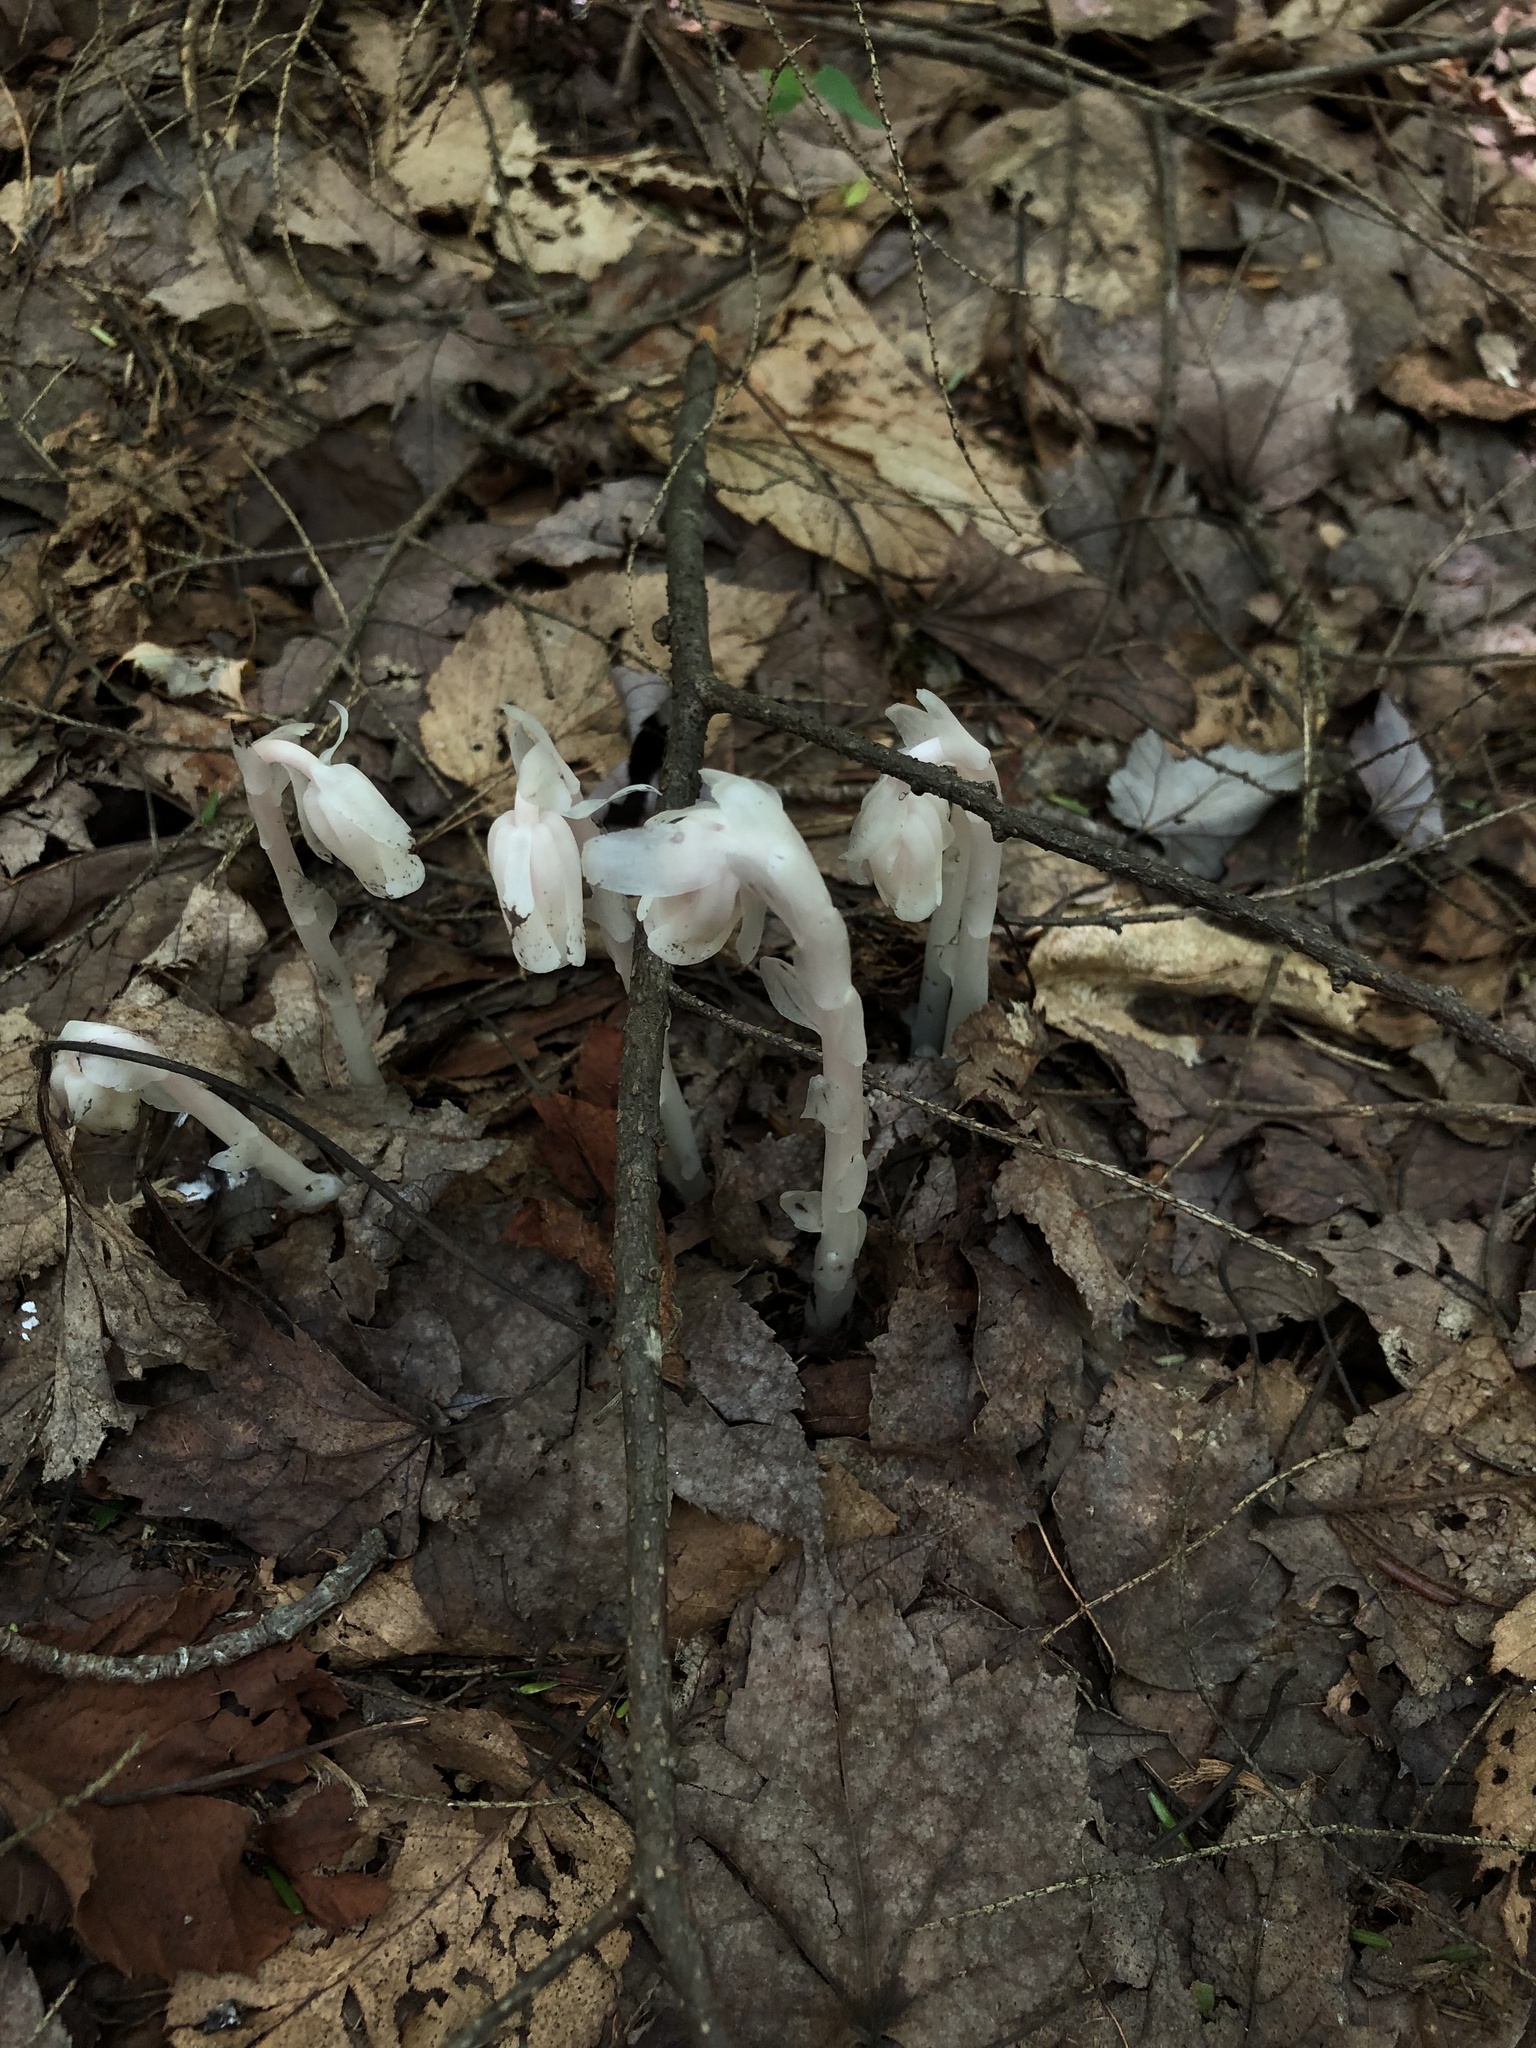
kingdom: Plantae
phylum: Tracheophyta
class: Magnoliopsida
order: Ericales
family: Ericaceae
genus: Monotropa
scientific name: Monotropa uniflora
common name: Convulsion root
